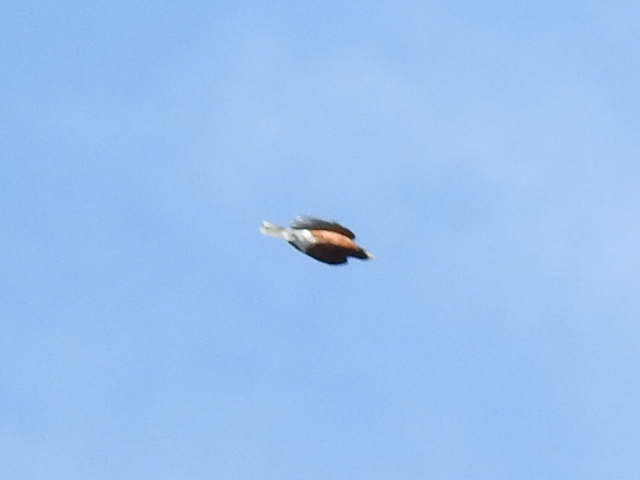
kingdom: Animalia
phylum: Chordata
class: Aves
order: Passeriformes
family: Turdidae
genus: Turdus
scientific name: Turdus migratorius
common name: American robin
